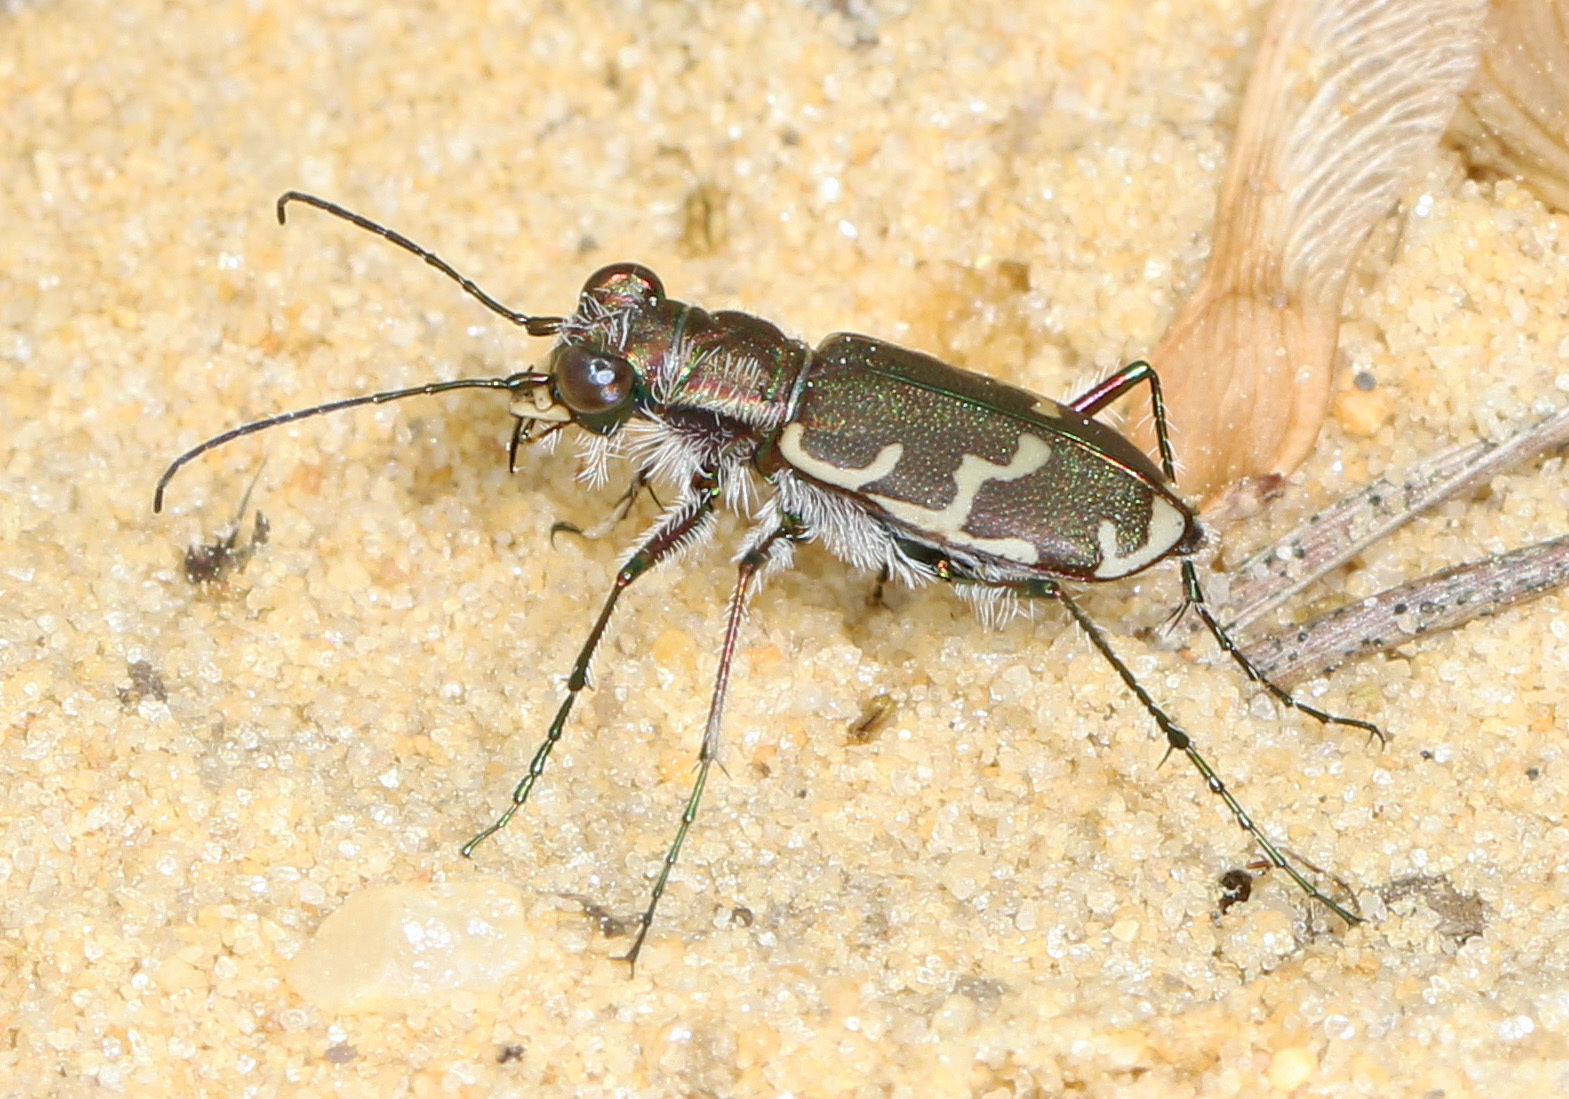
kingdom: Animalia
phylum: Arthropoda
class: Insecta
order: Coleoptera
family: Carabidae
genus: Cicindela
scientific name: Cicindela repanda
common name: Bronzed tiger beetle
